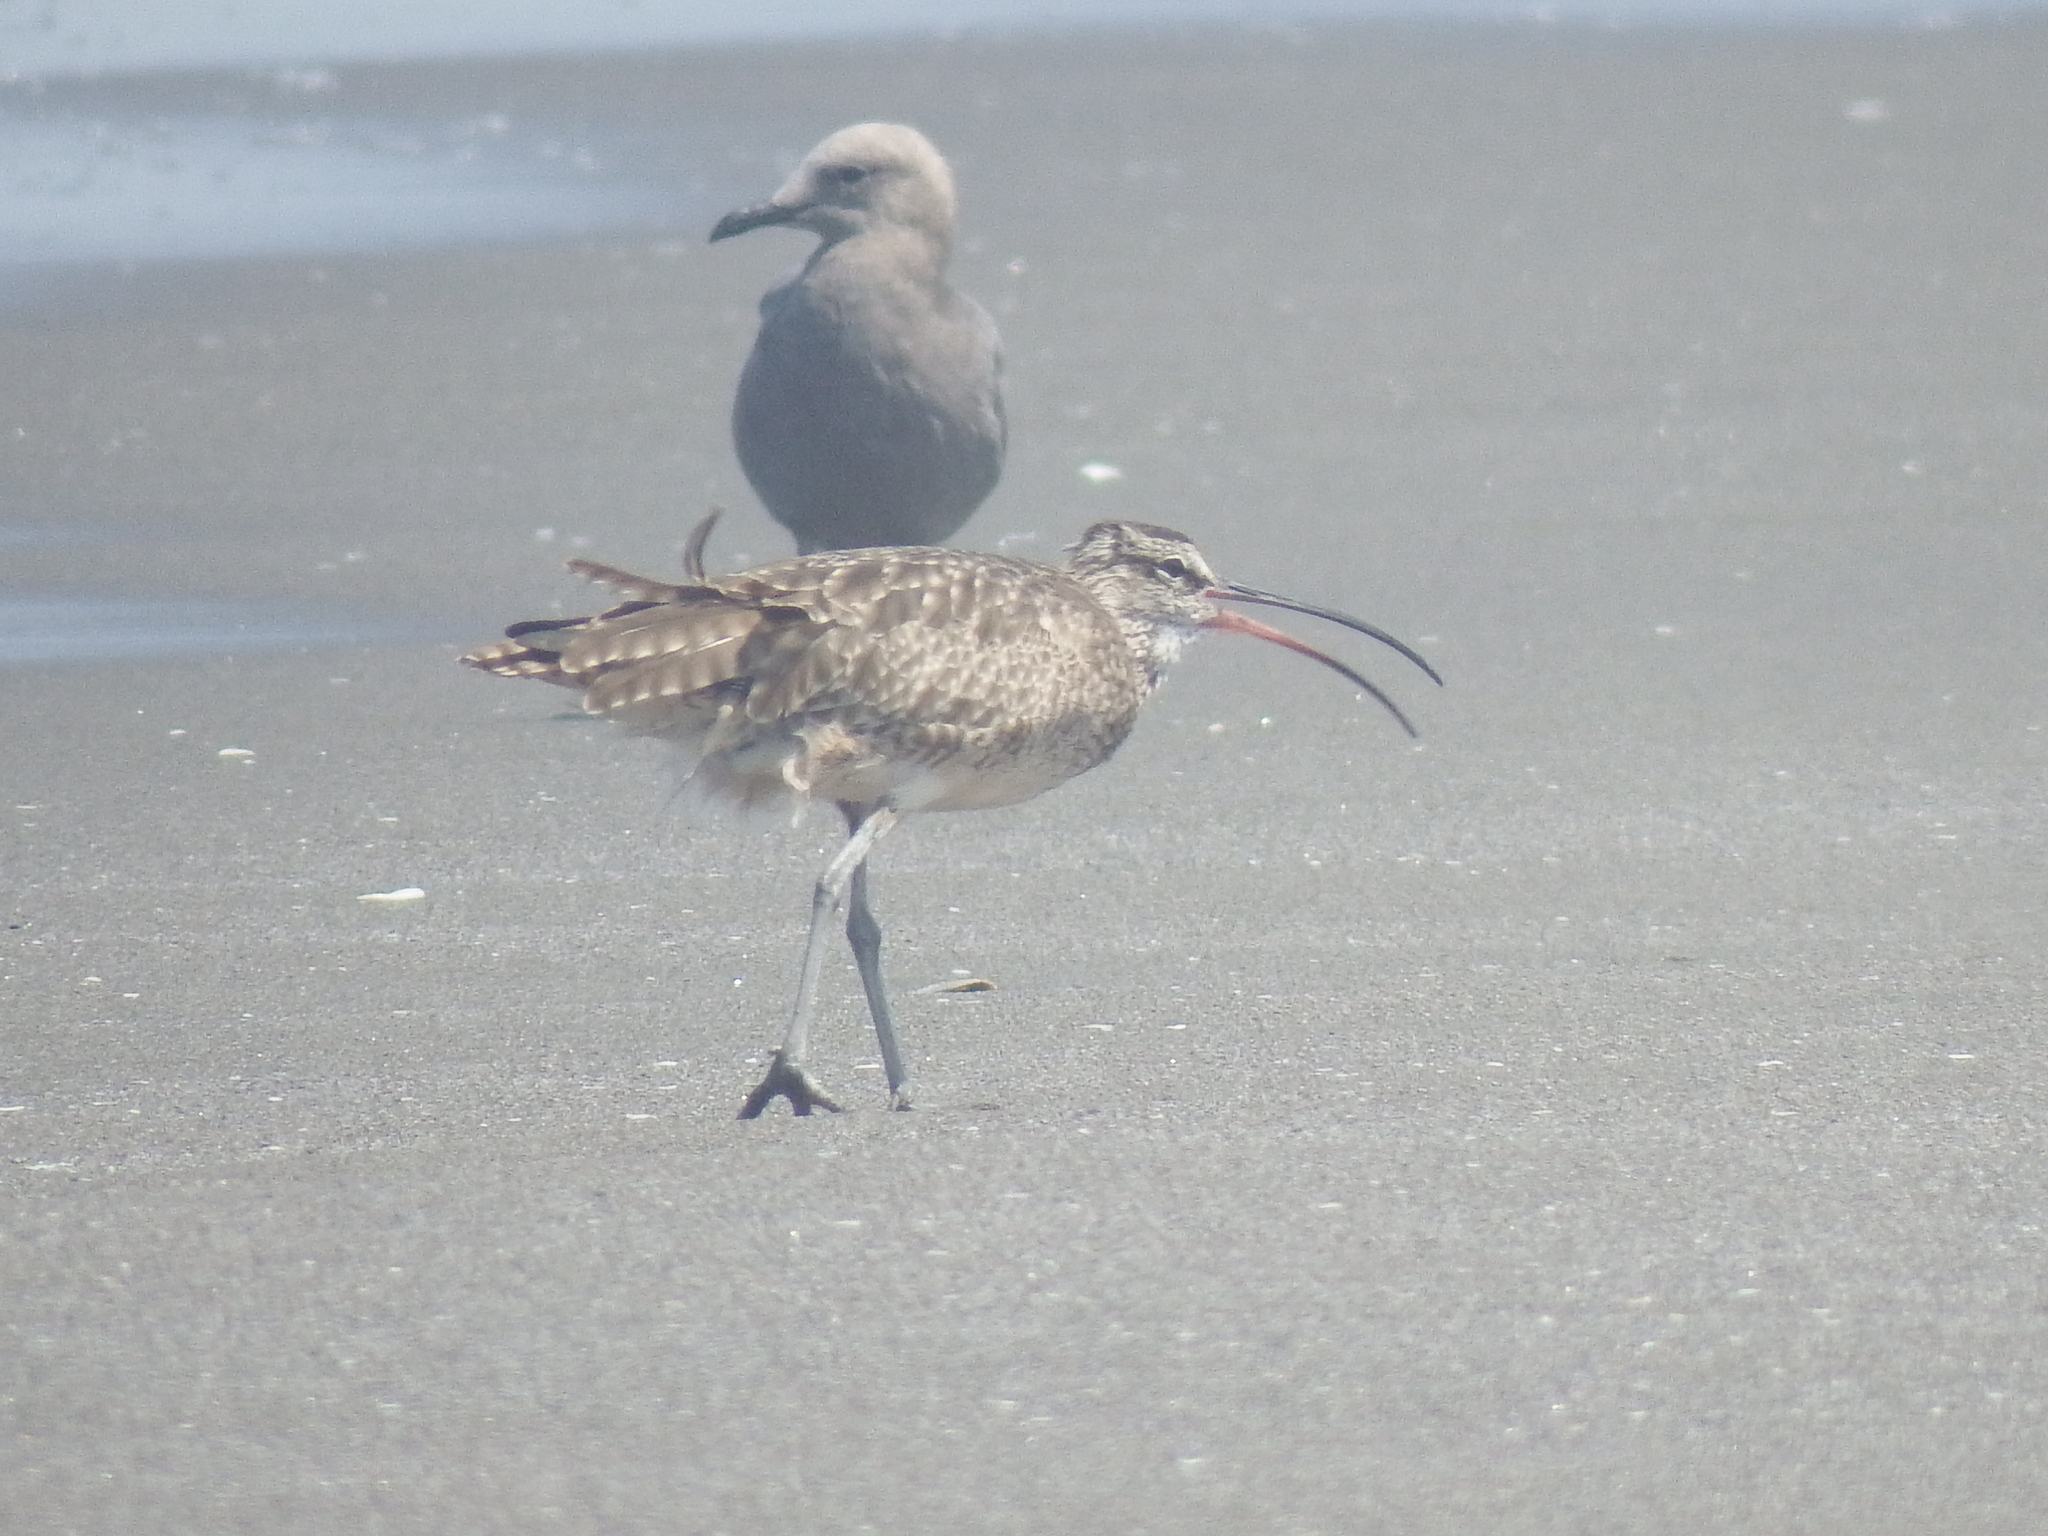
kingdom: Animalia
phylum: Chordata
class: Aves
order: Charadriiformes
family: Scolopacidae
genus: Numenius
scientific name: Numenius phaeopus
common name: Whimbrel
